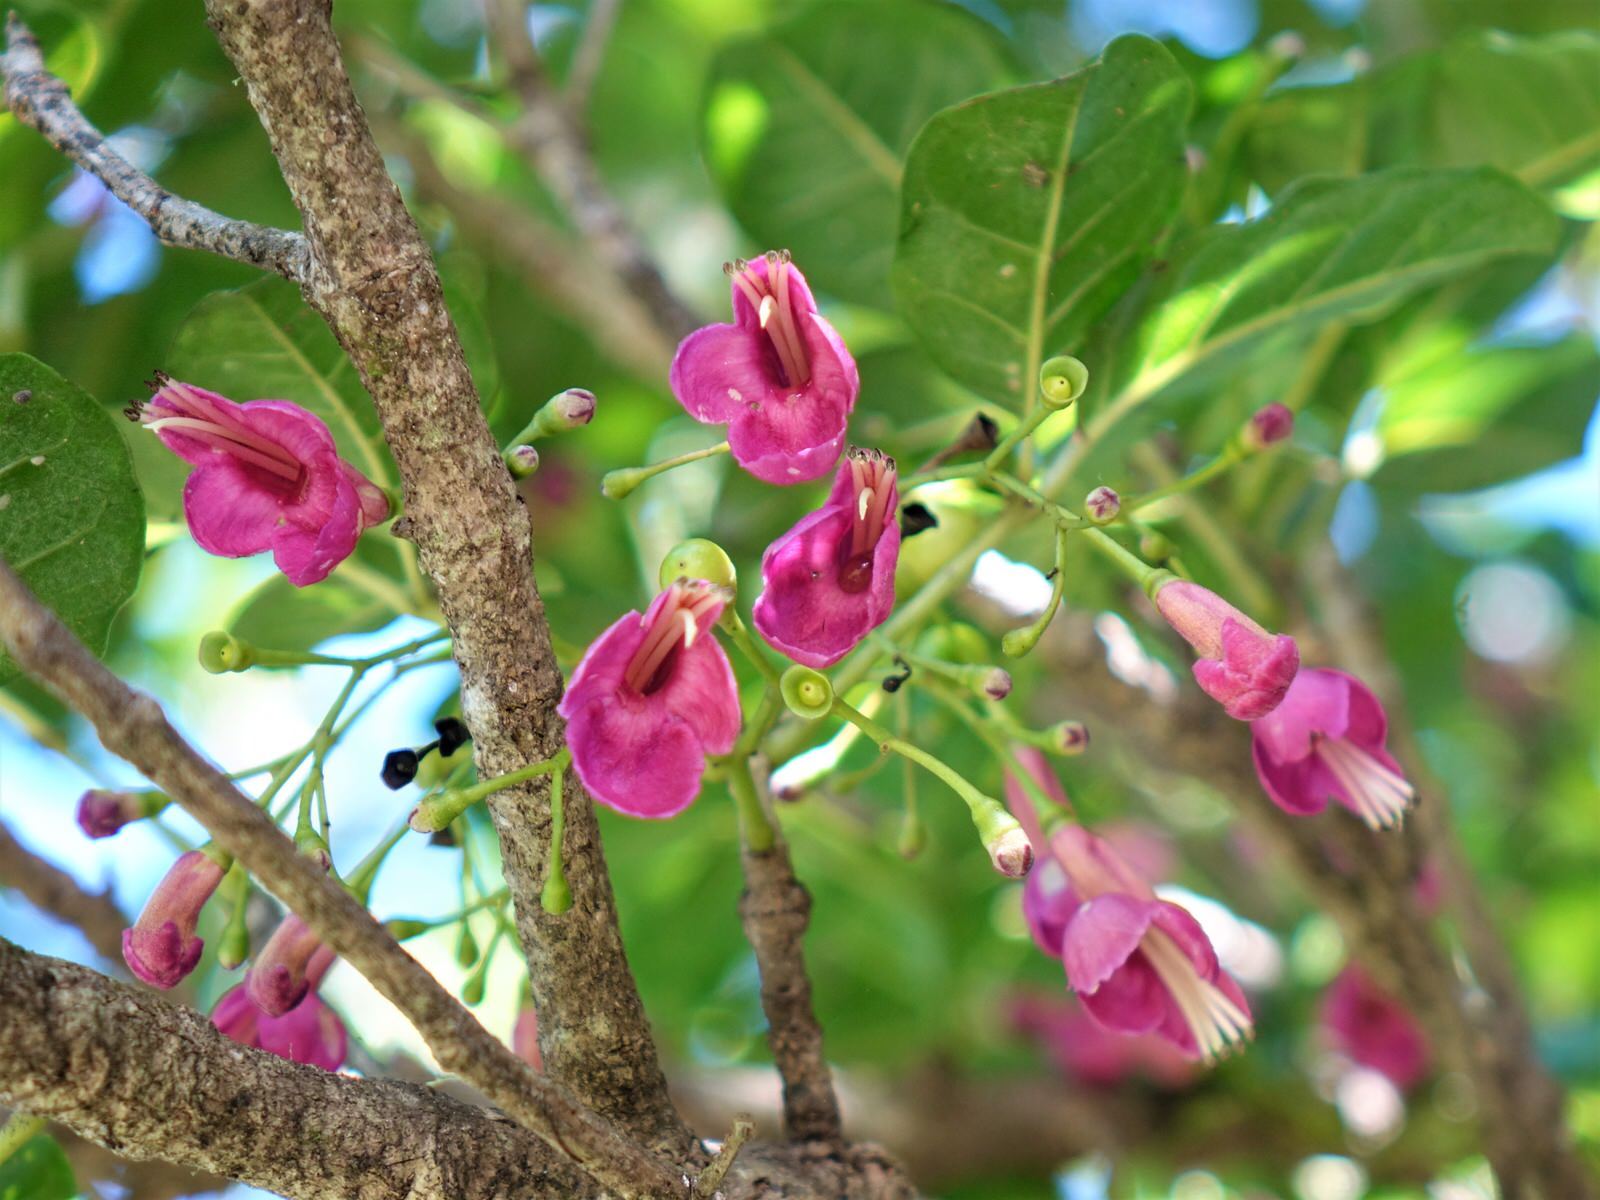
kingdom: Plantae
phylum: Tracheophyta
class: Magnoliopsida
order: Lamiales
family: Lamiaceae
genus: Vitex
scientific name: Vitex lucens
